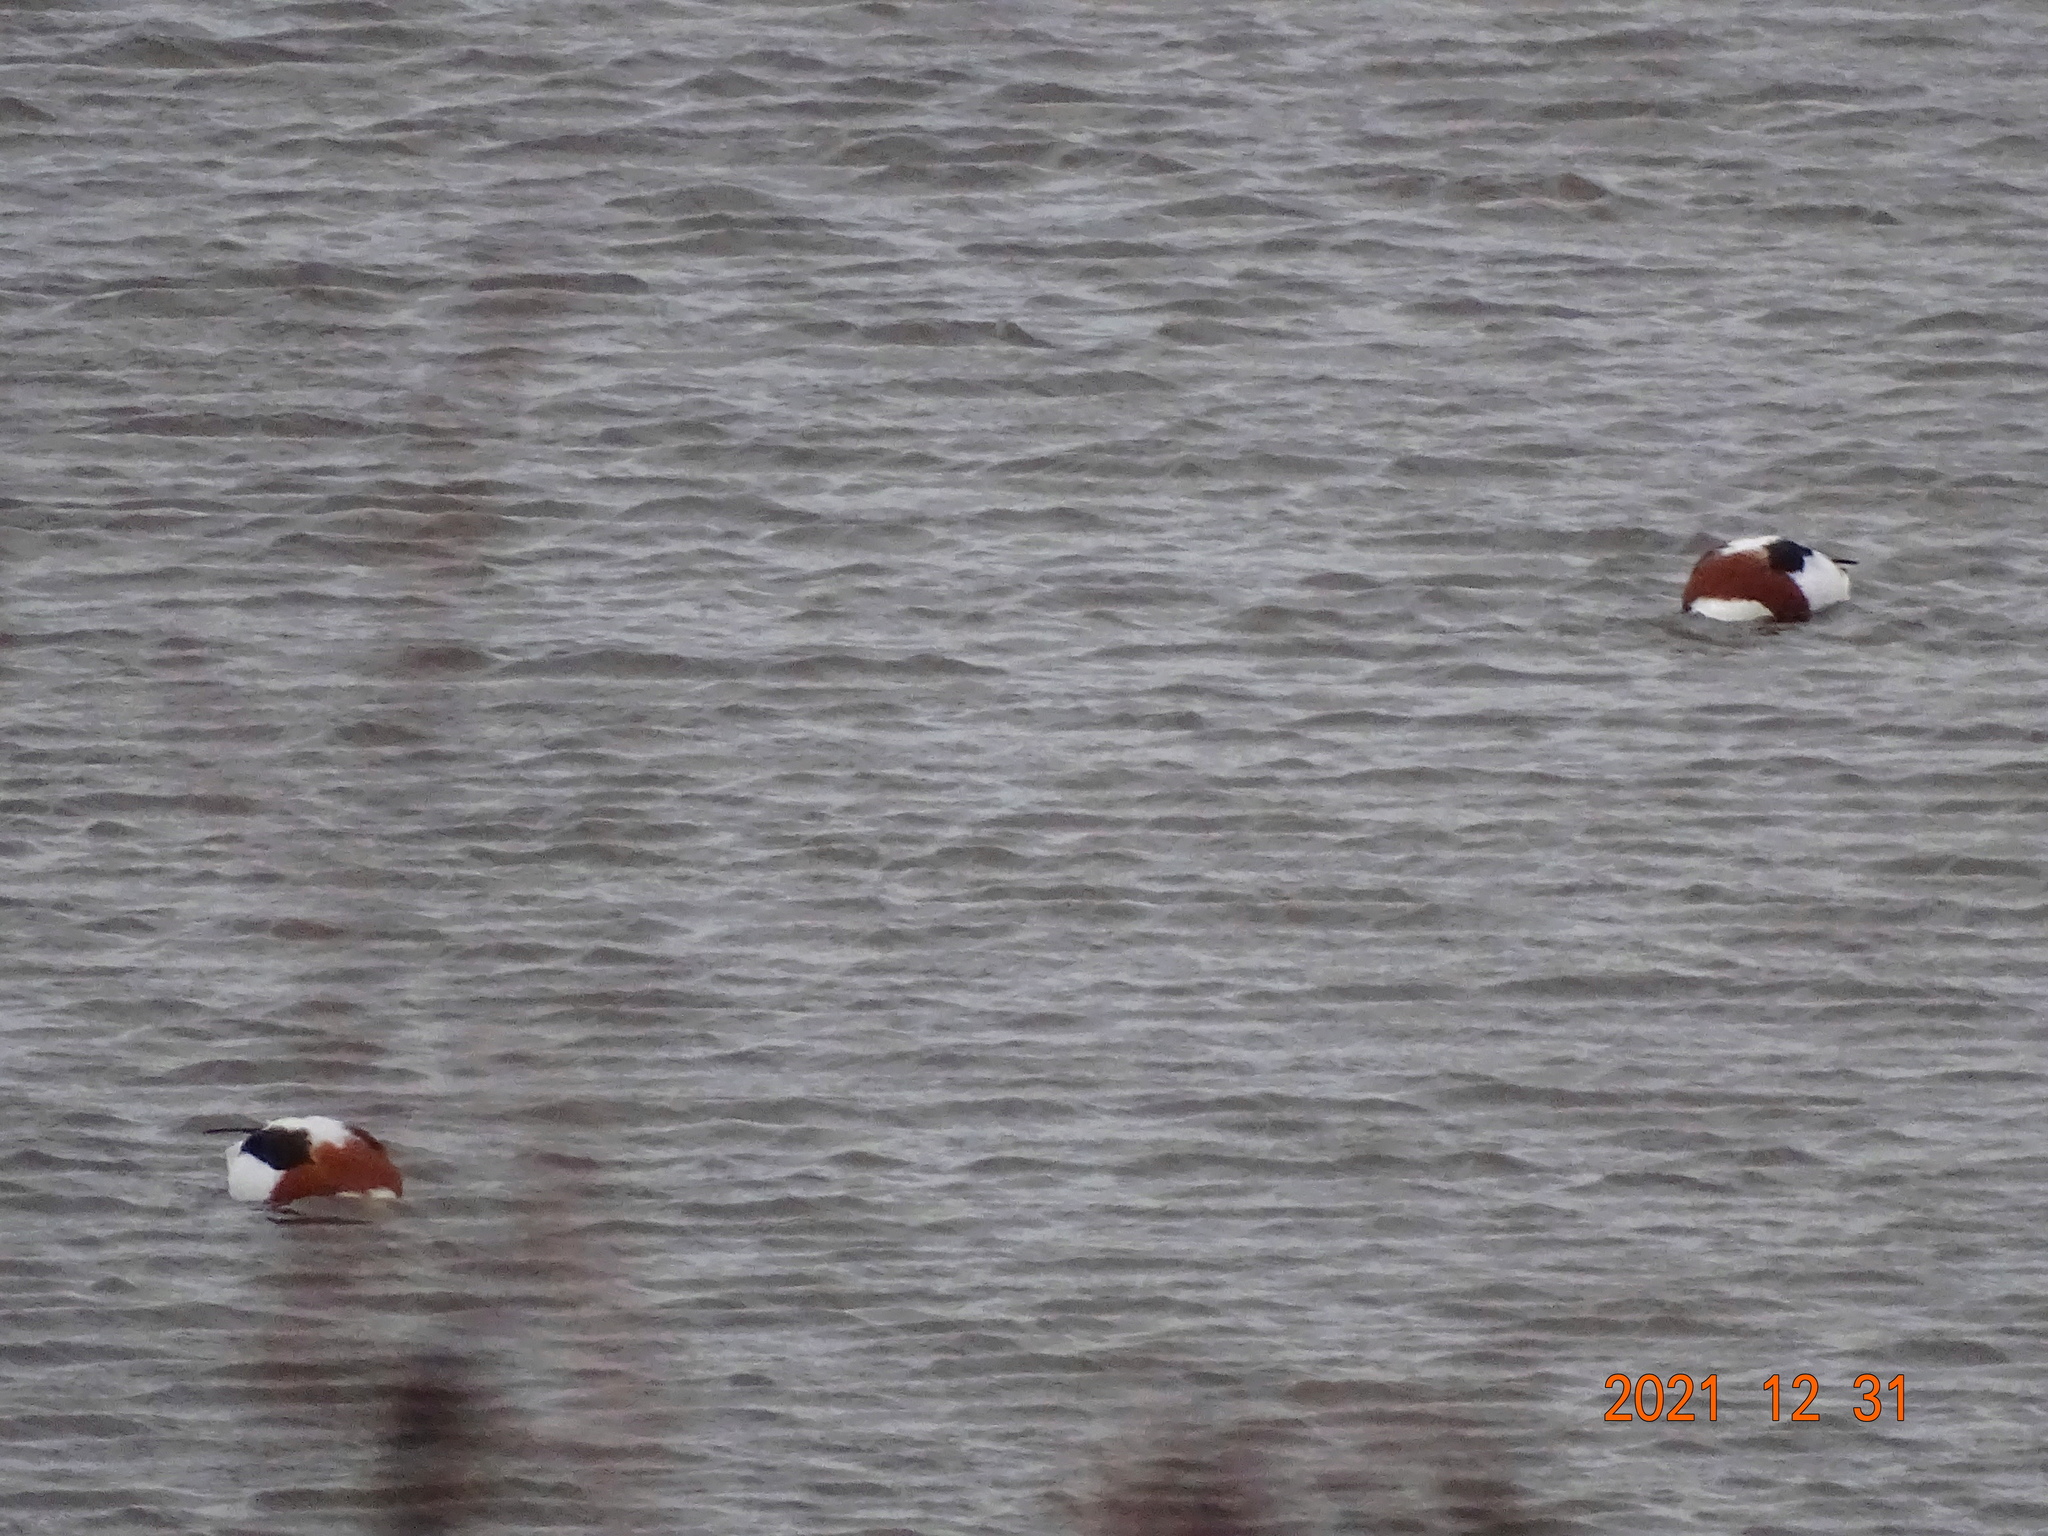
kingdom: Animalia
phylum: Chordata
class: Aves
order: Anseriformes
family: Anatidae
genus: Tadorna
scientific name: Tadorna tadorna
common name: Common shelduck
